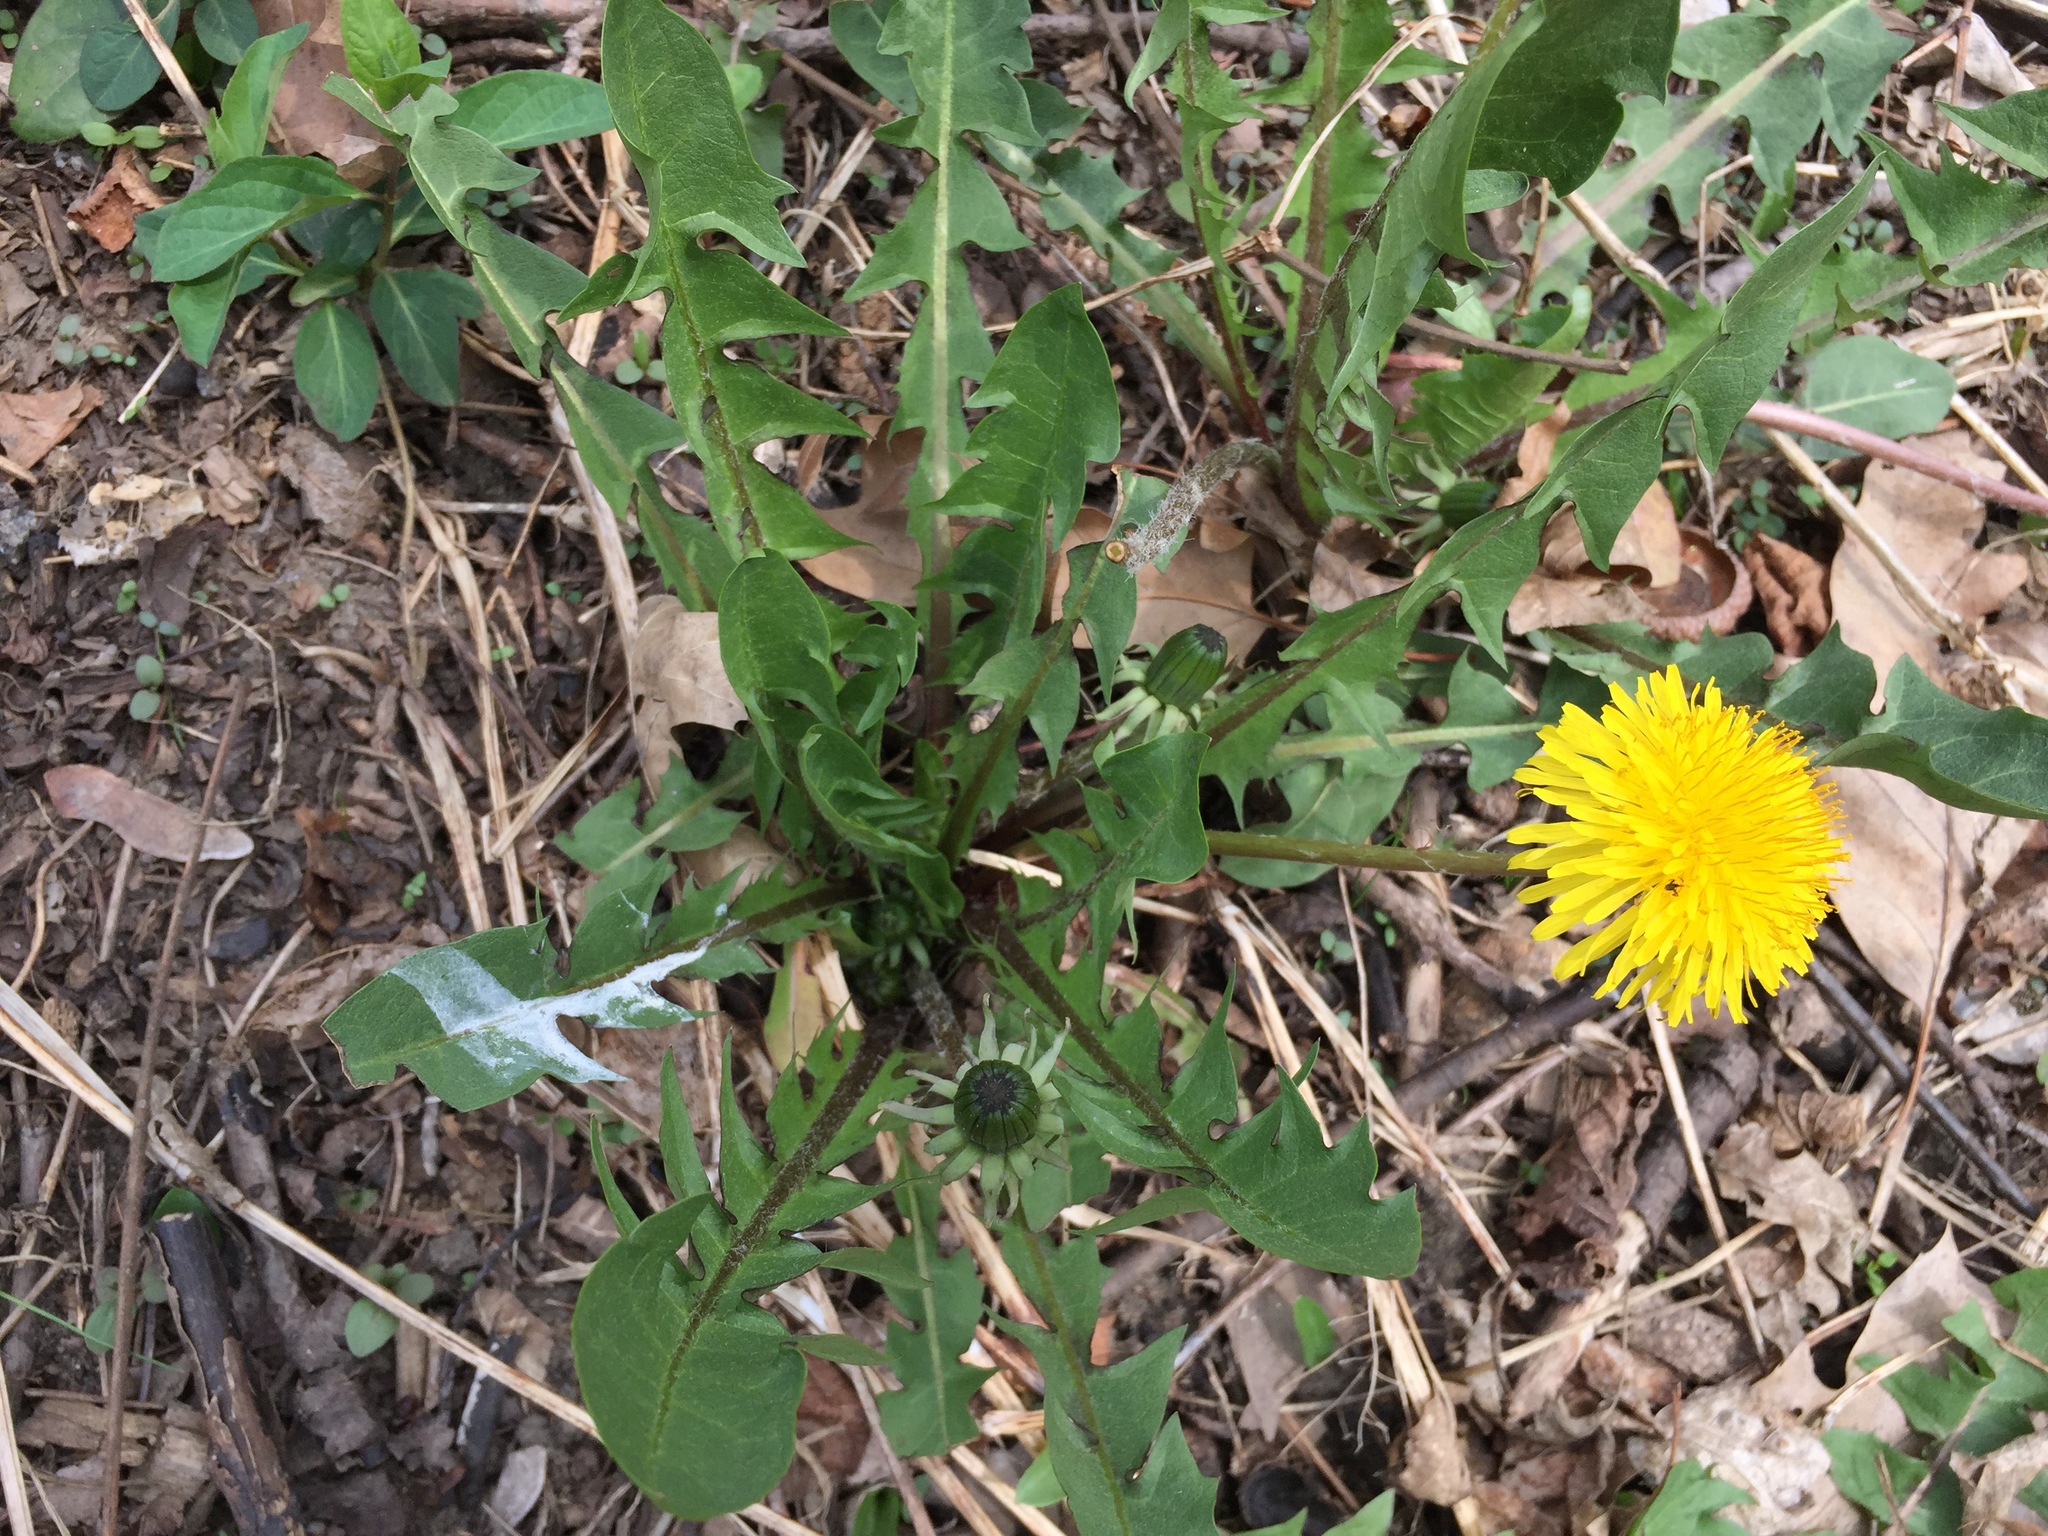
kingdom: Plantae
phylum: Tracheophyta
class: Magnoliopsida
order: Asterales
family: Asteraceae
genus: Taraxacum
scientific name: Taraxacum officinale
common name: Common dandelion
